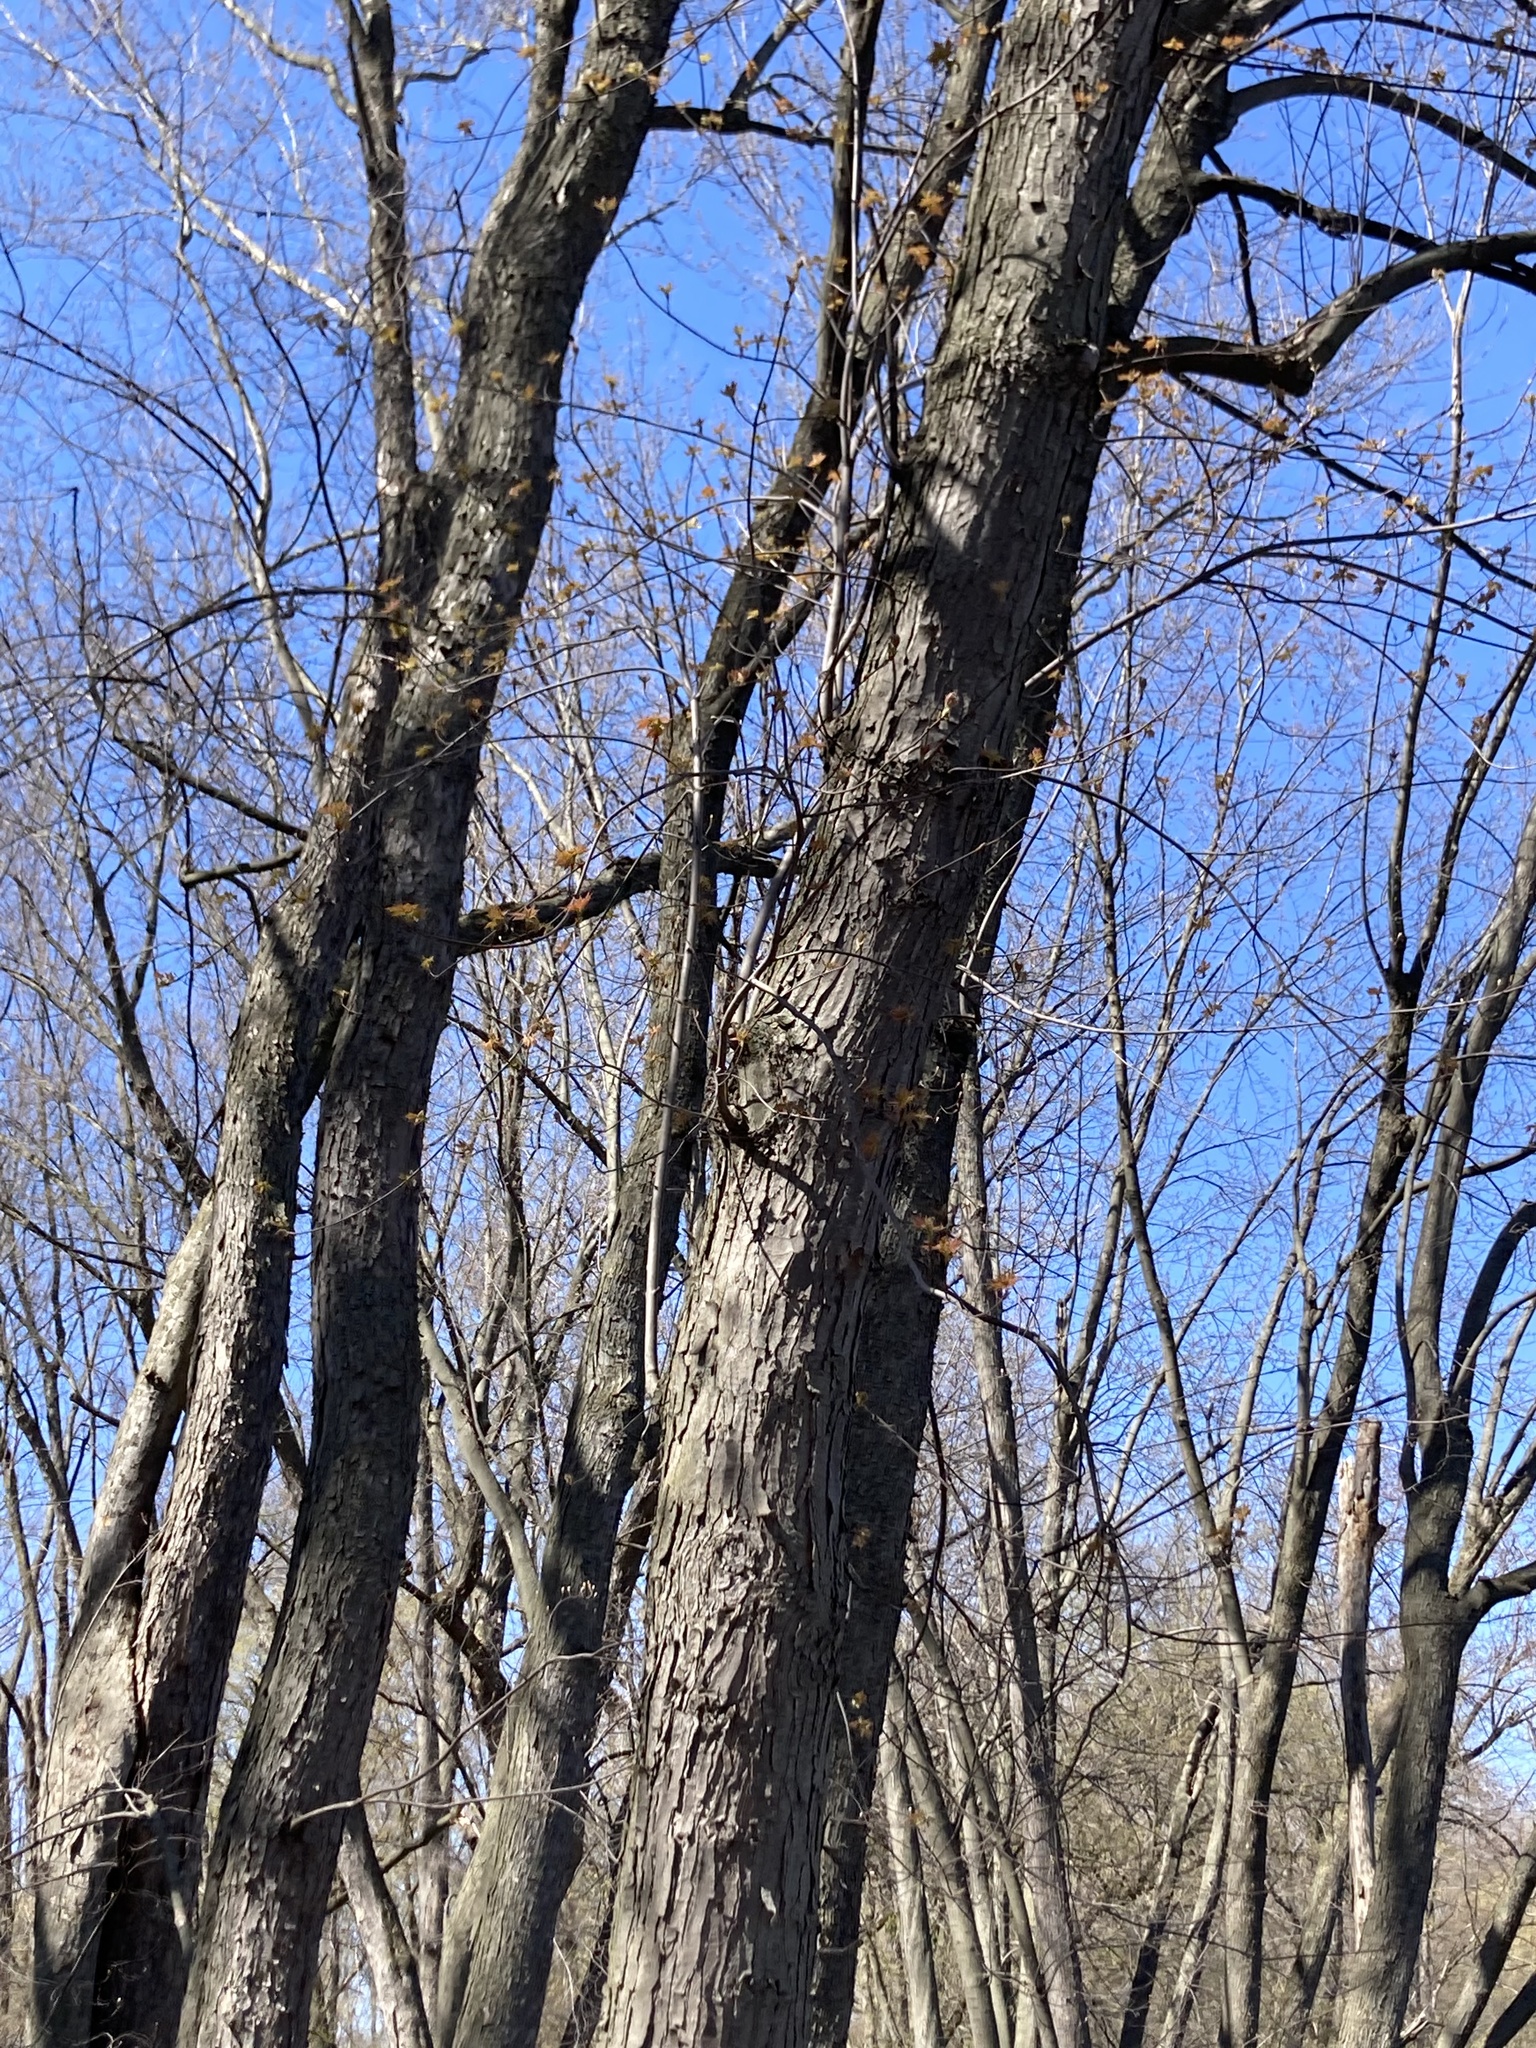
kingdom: Plantae
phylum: Tracheophyta
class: Magnoliopsida
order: Sapindales
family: Sapindaceae
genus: Acer
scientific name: Acer saccharinum
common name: Silver maple
